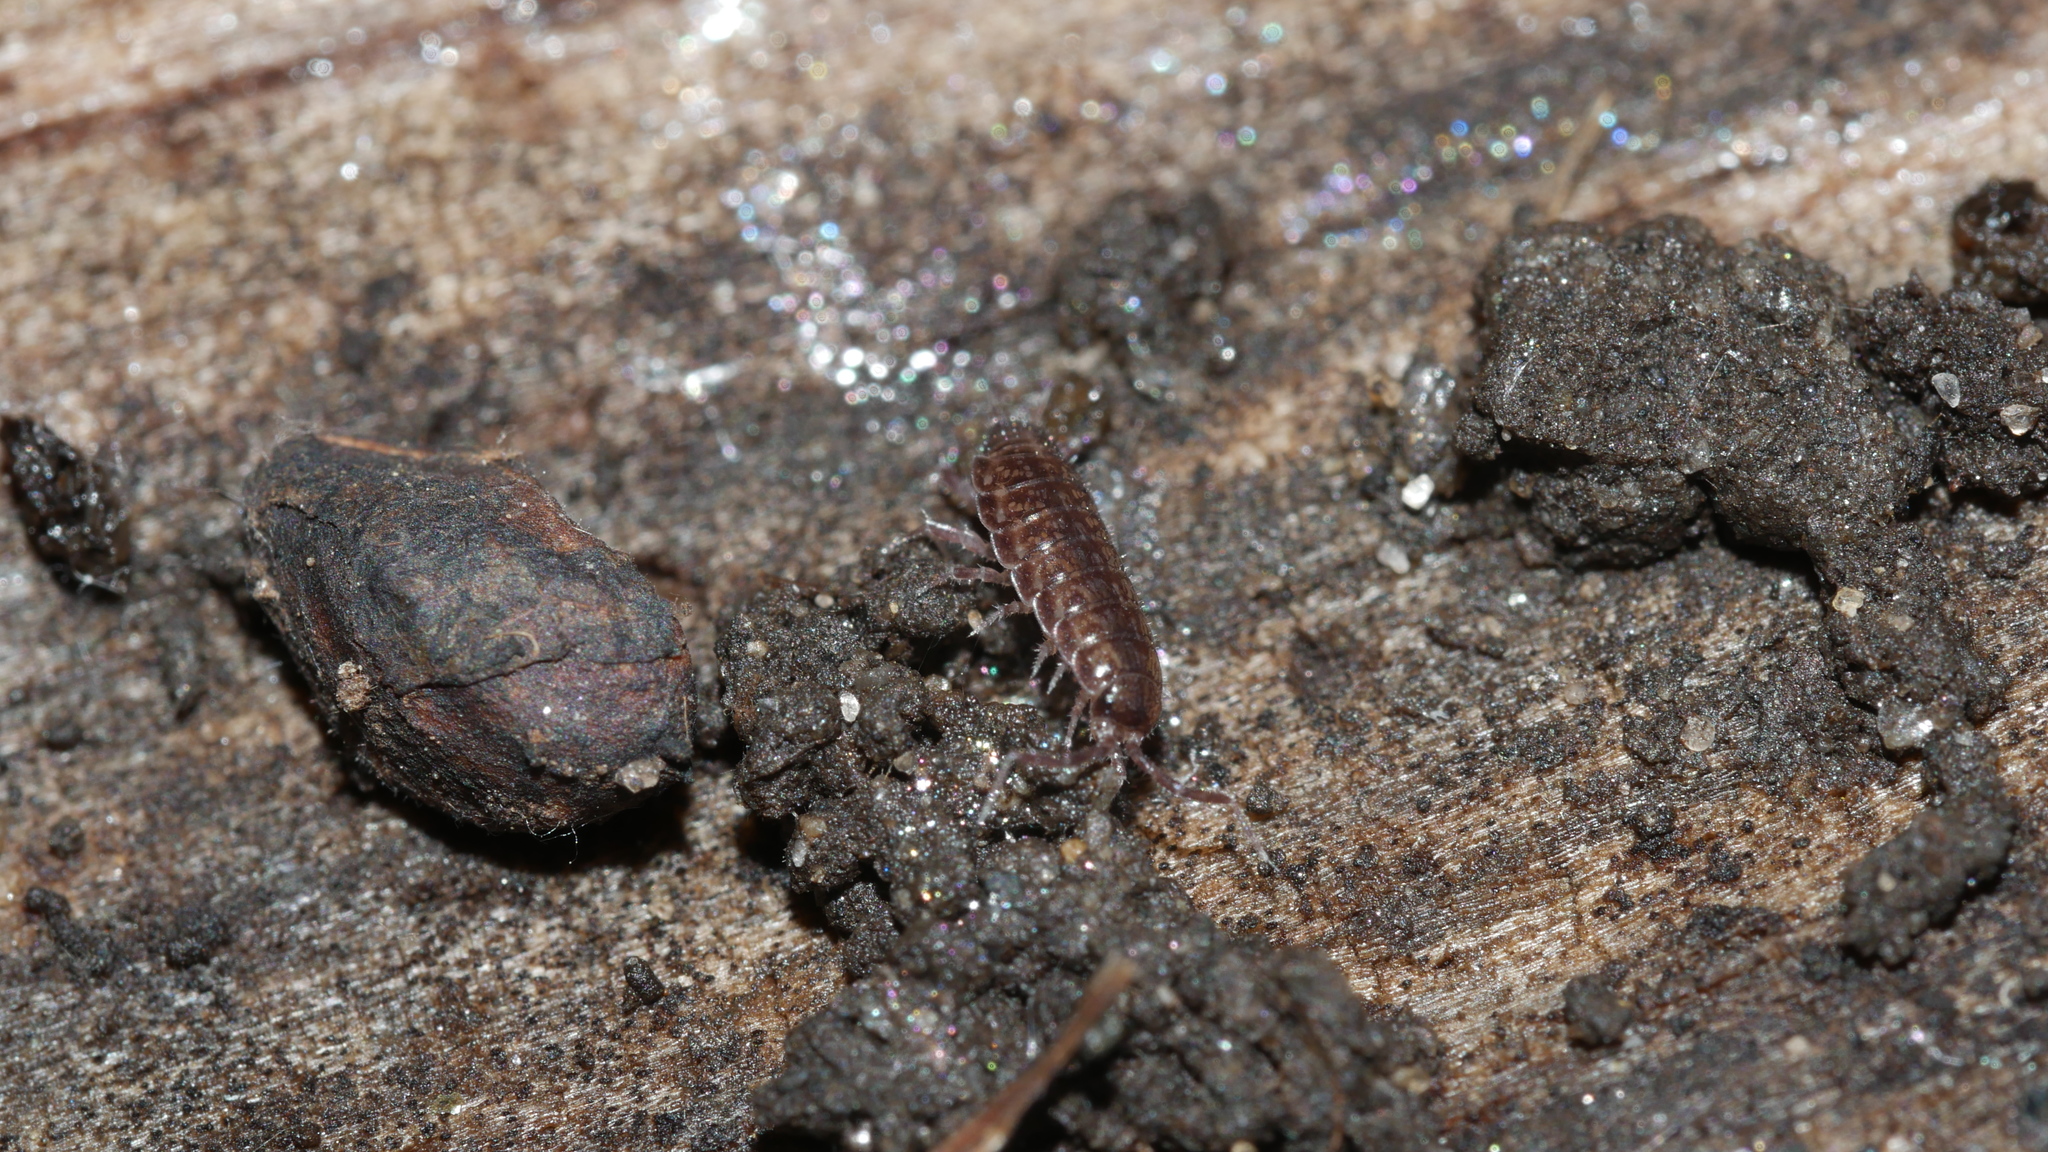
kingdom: Animalia
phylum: Arthropoda
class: Malacostraca
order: Isopoda
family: Philosciidae
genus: Chaetophiloscia
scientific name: Chaetophiloscia sicula
